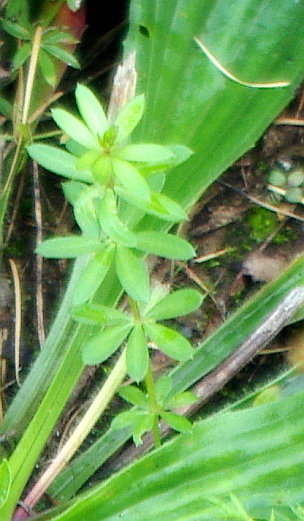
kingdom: Plantae
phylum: Tracheophyta
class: Magnoliopsida
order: Gentianales
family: Rubiaceae
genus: Galium
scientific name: Galium mollugo
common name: Hedge bedstraw
